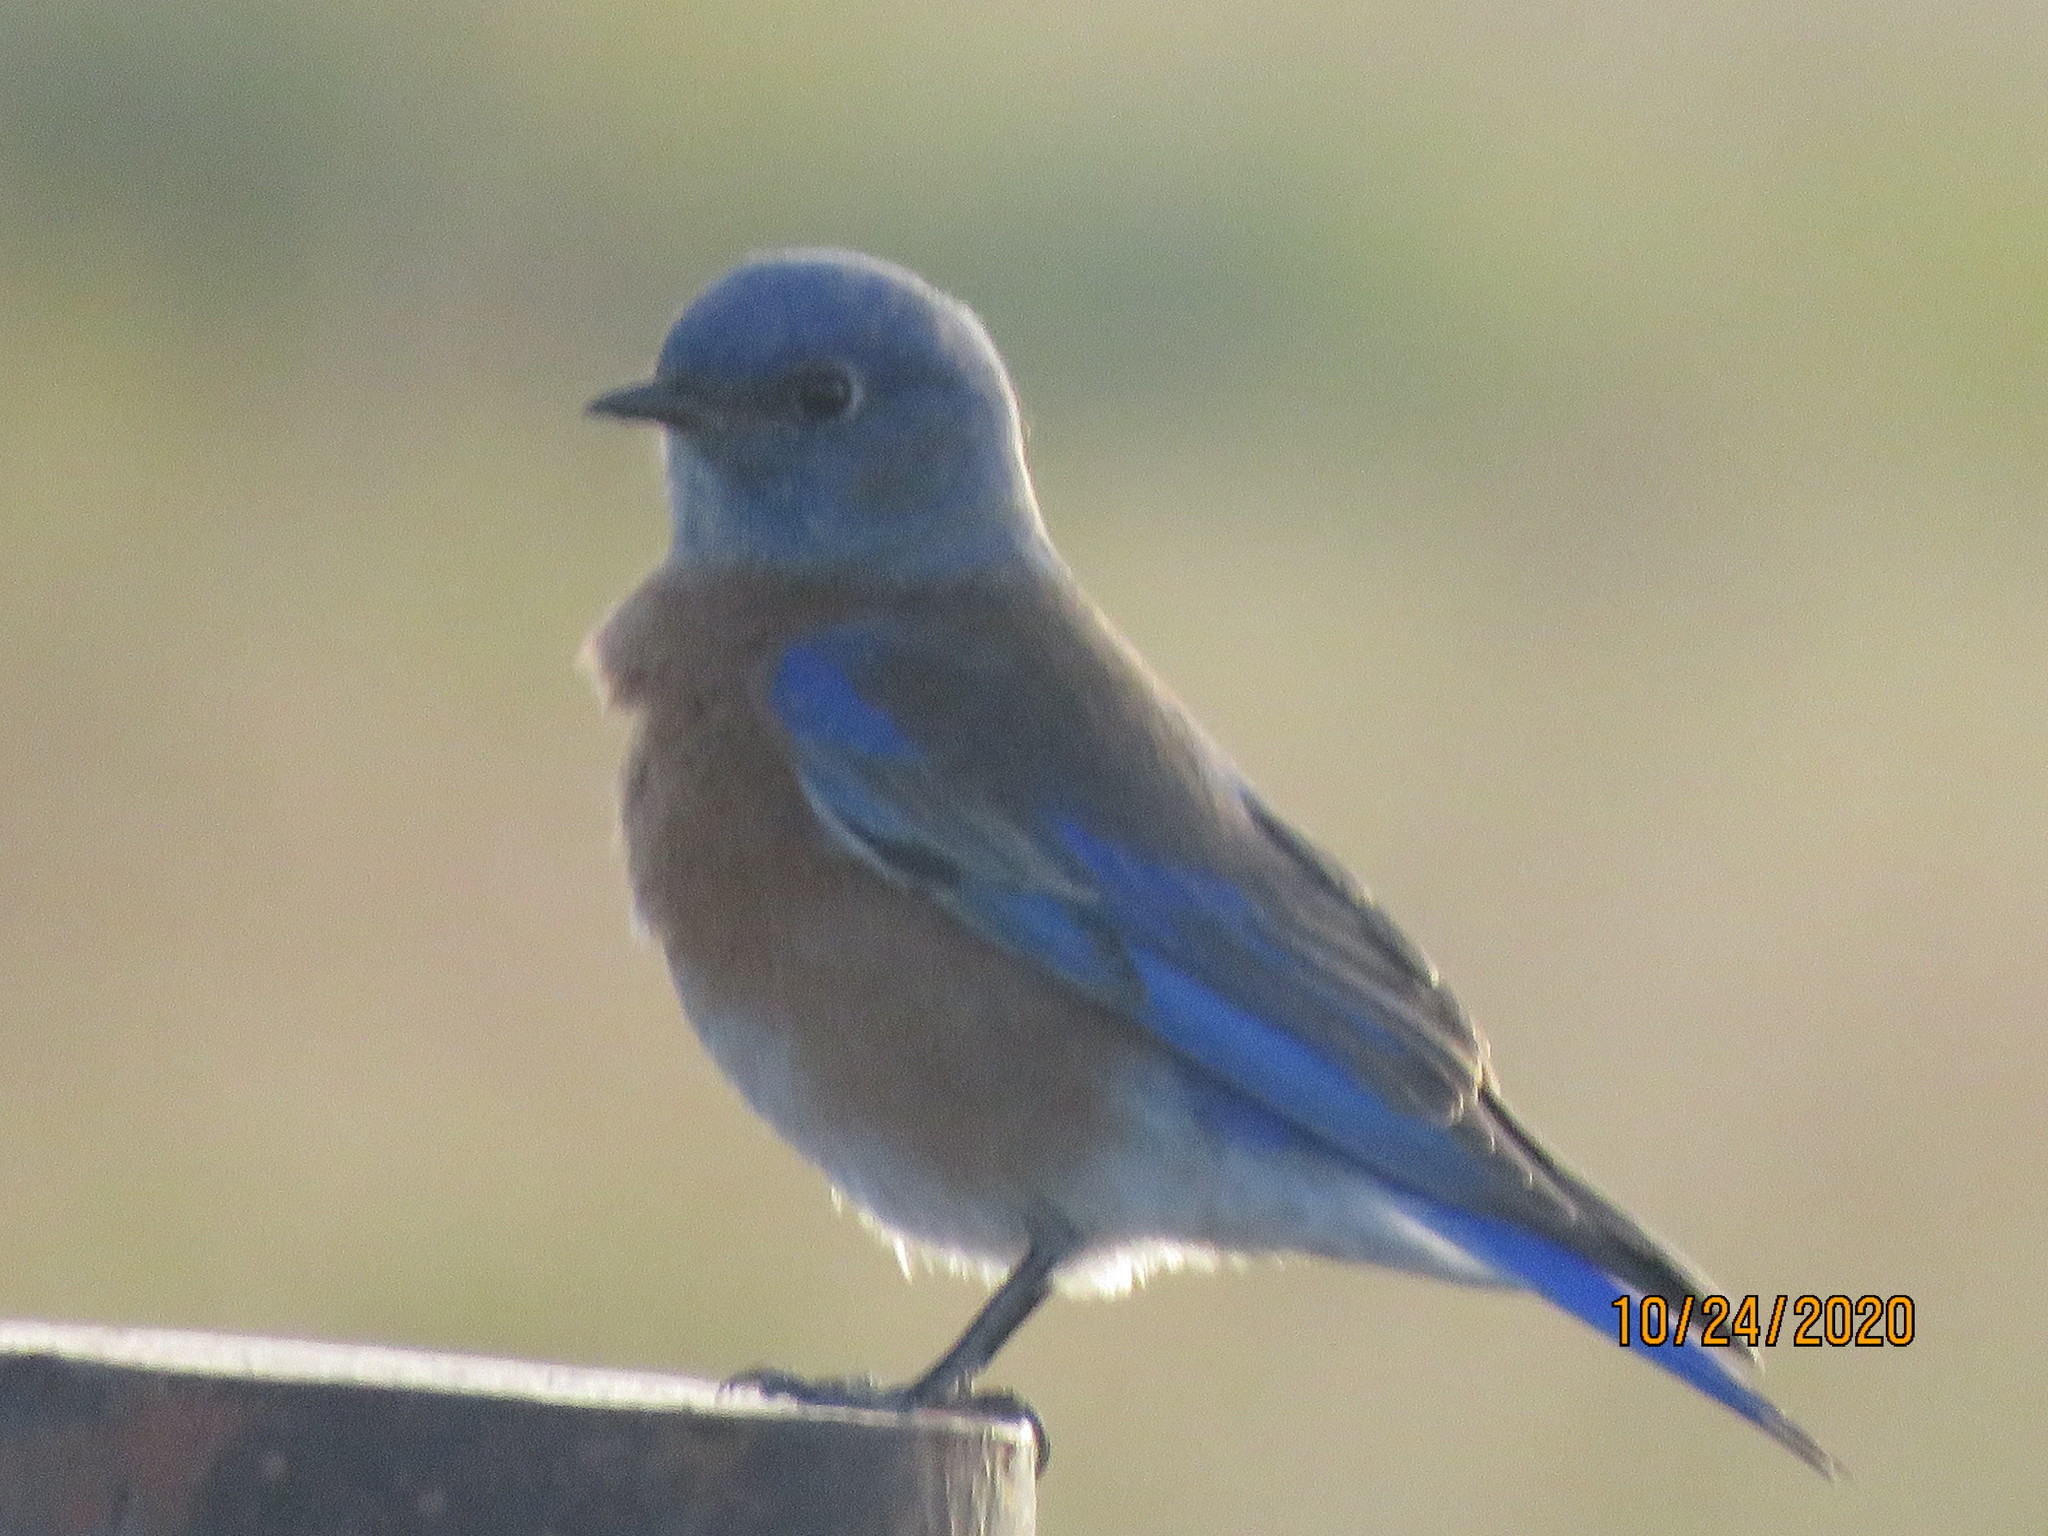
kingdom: Animalia
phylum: Chordata
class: Aves
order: Passeriformes
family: Turdidae
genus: Sialia
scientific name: Sialia mexicana
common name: Western bluebird
